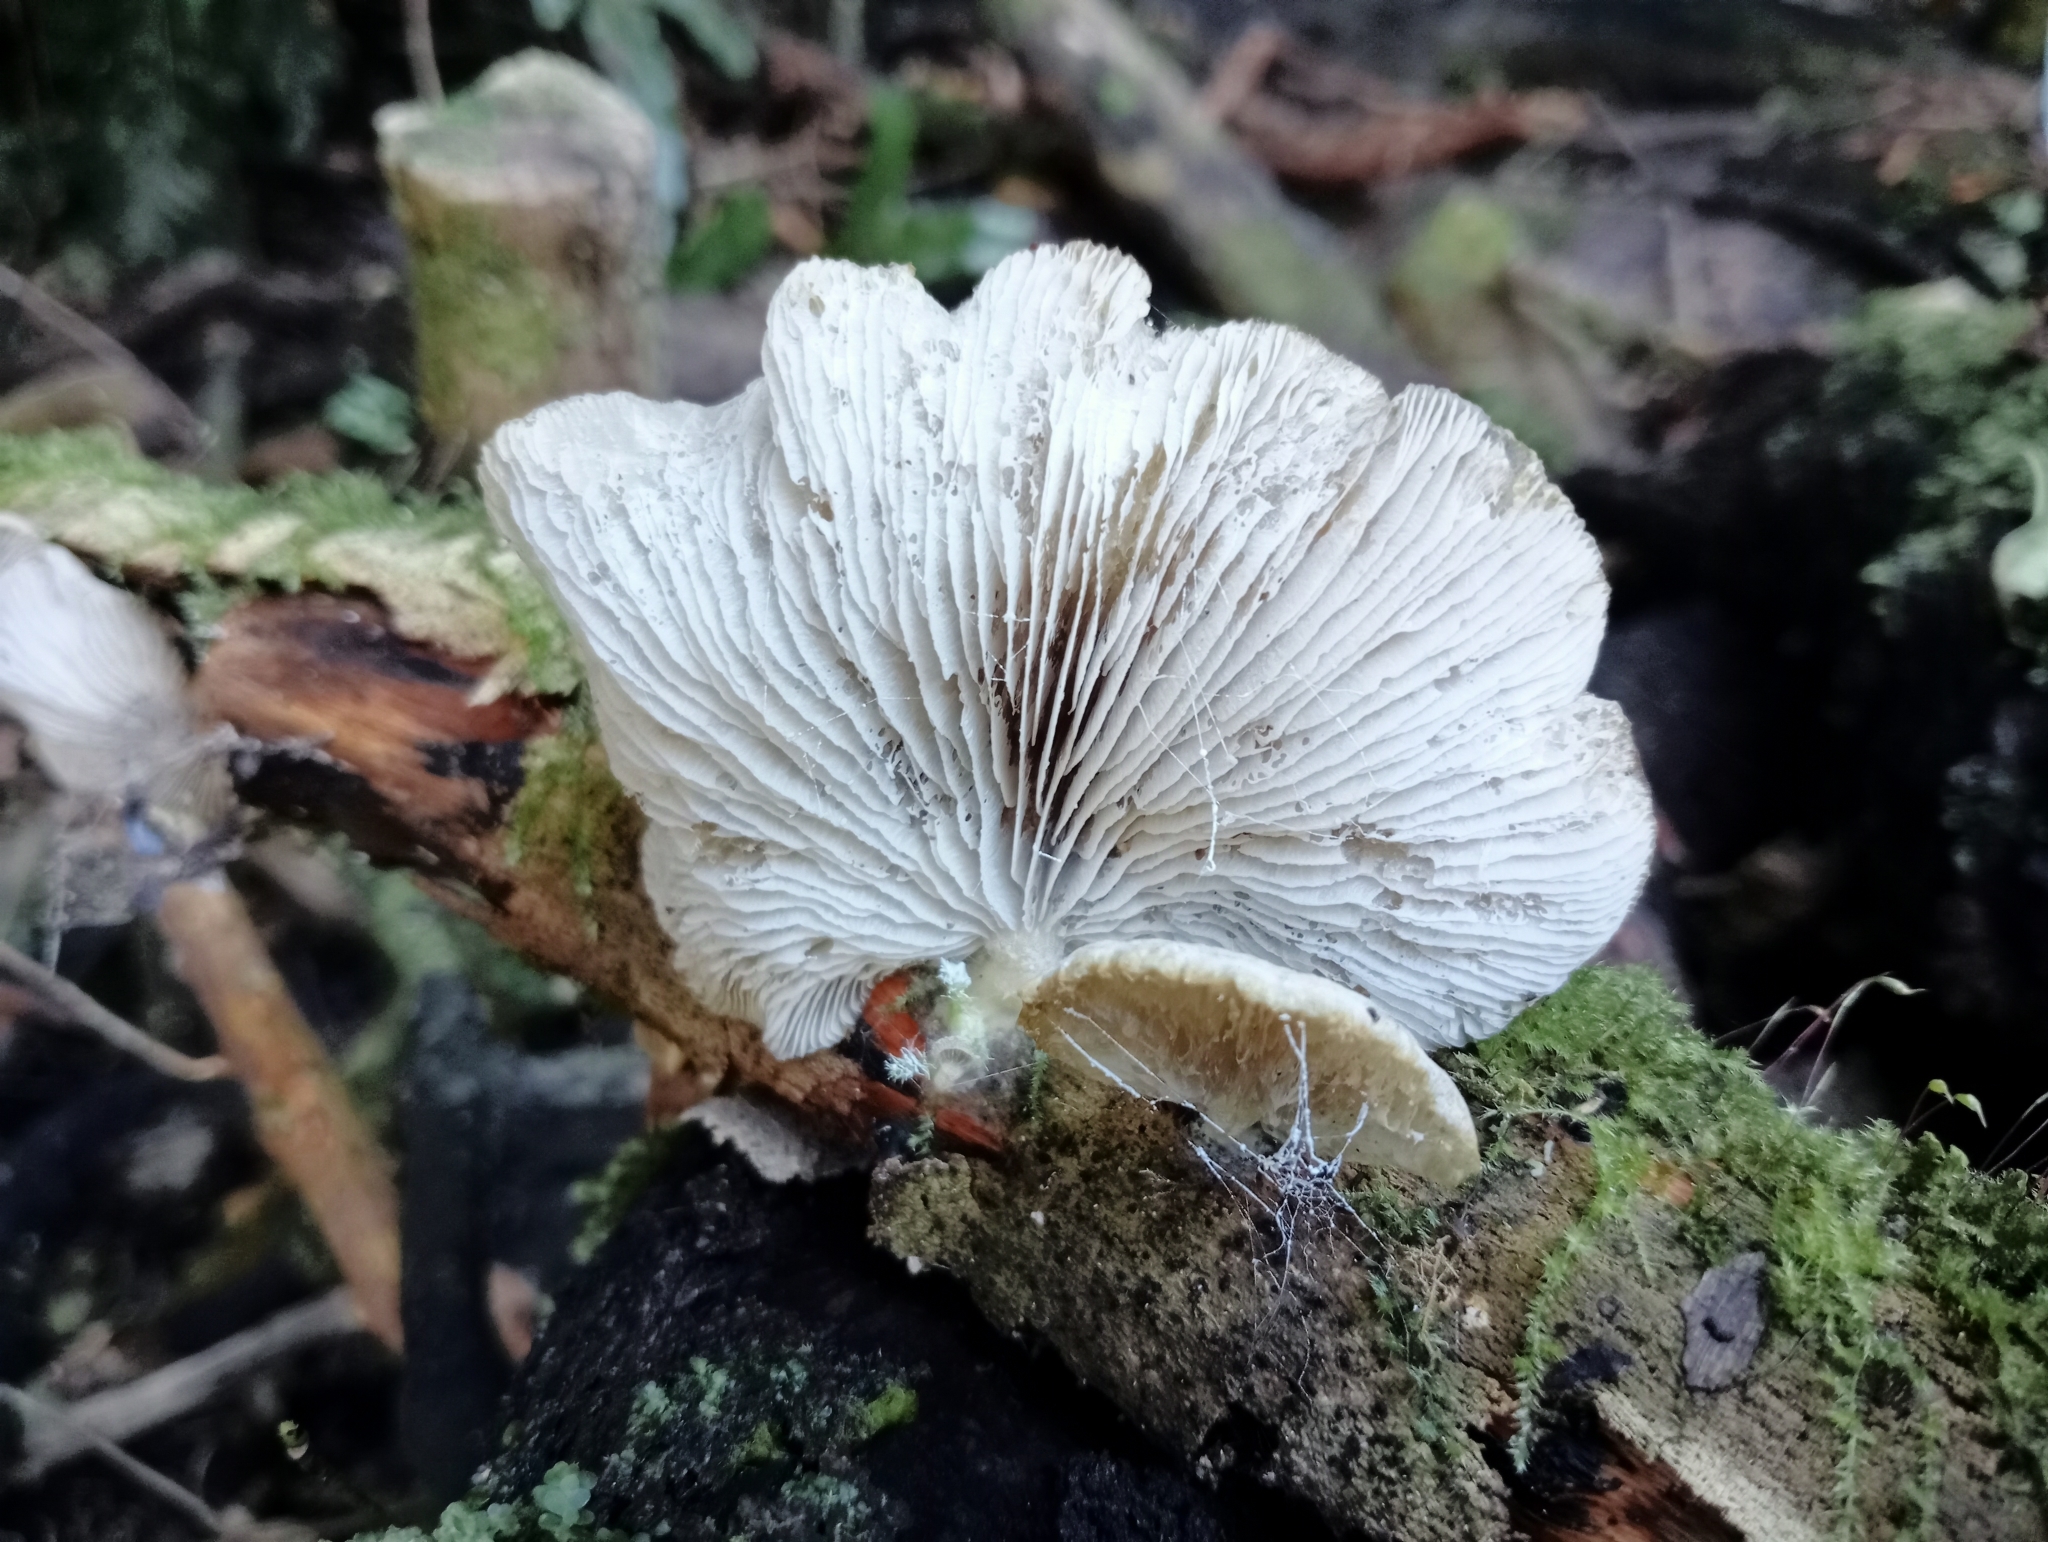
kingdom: Fungi
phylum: Basidiomycota
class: Agaricomycetes
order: Agaricales
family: Tricholomataceae
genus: Conchomyces
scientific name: Conchomyces bursiformis
